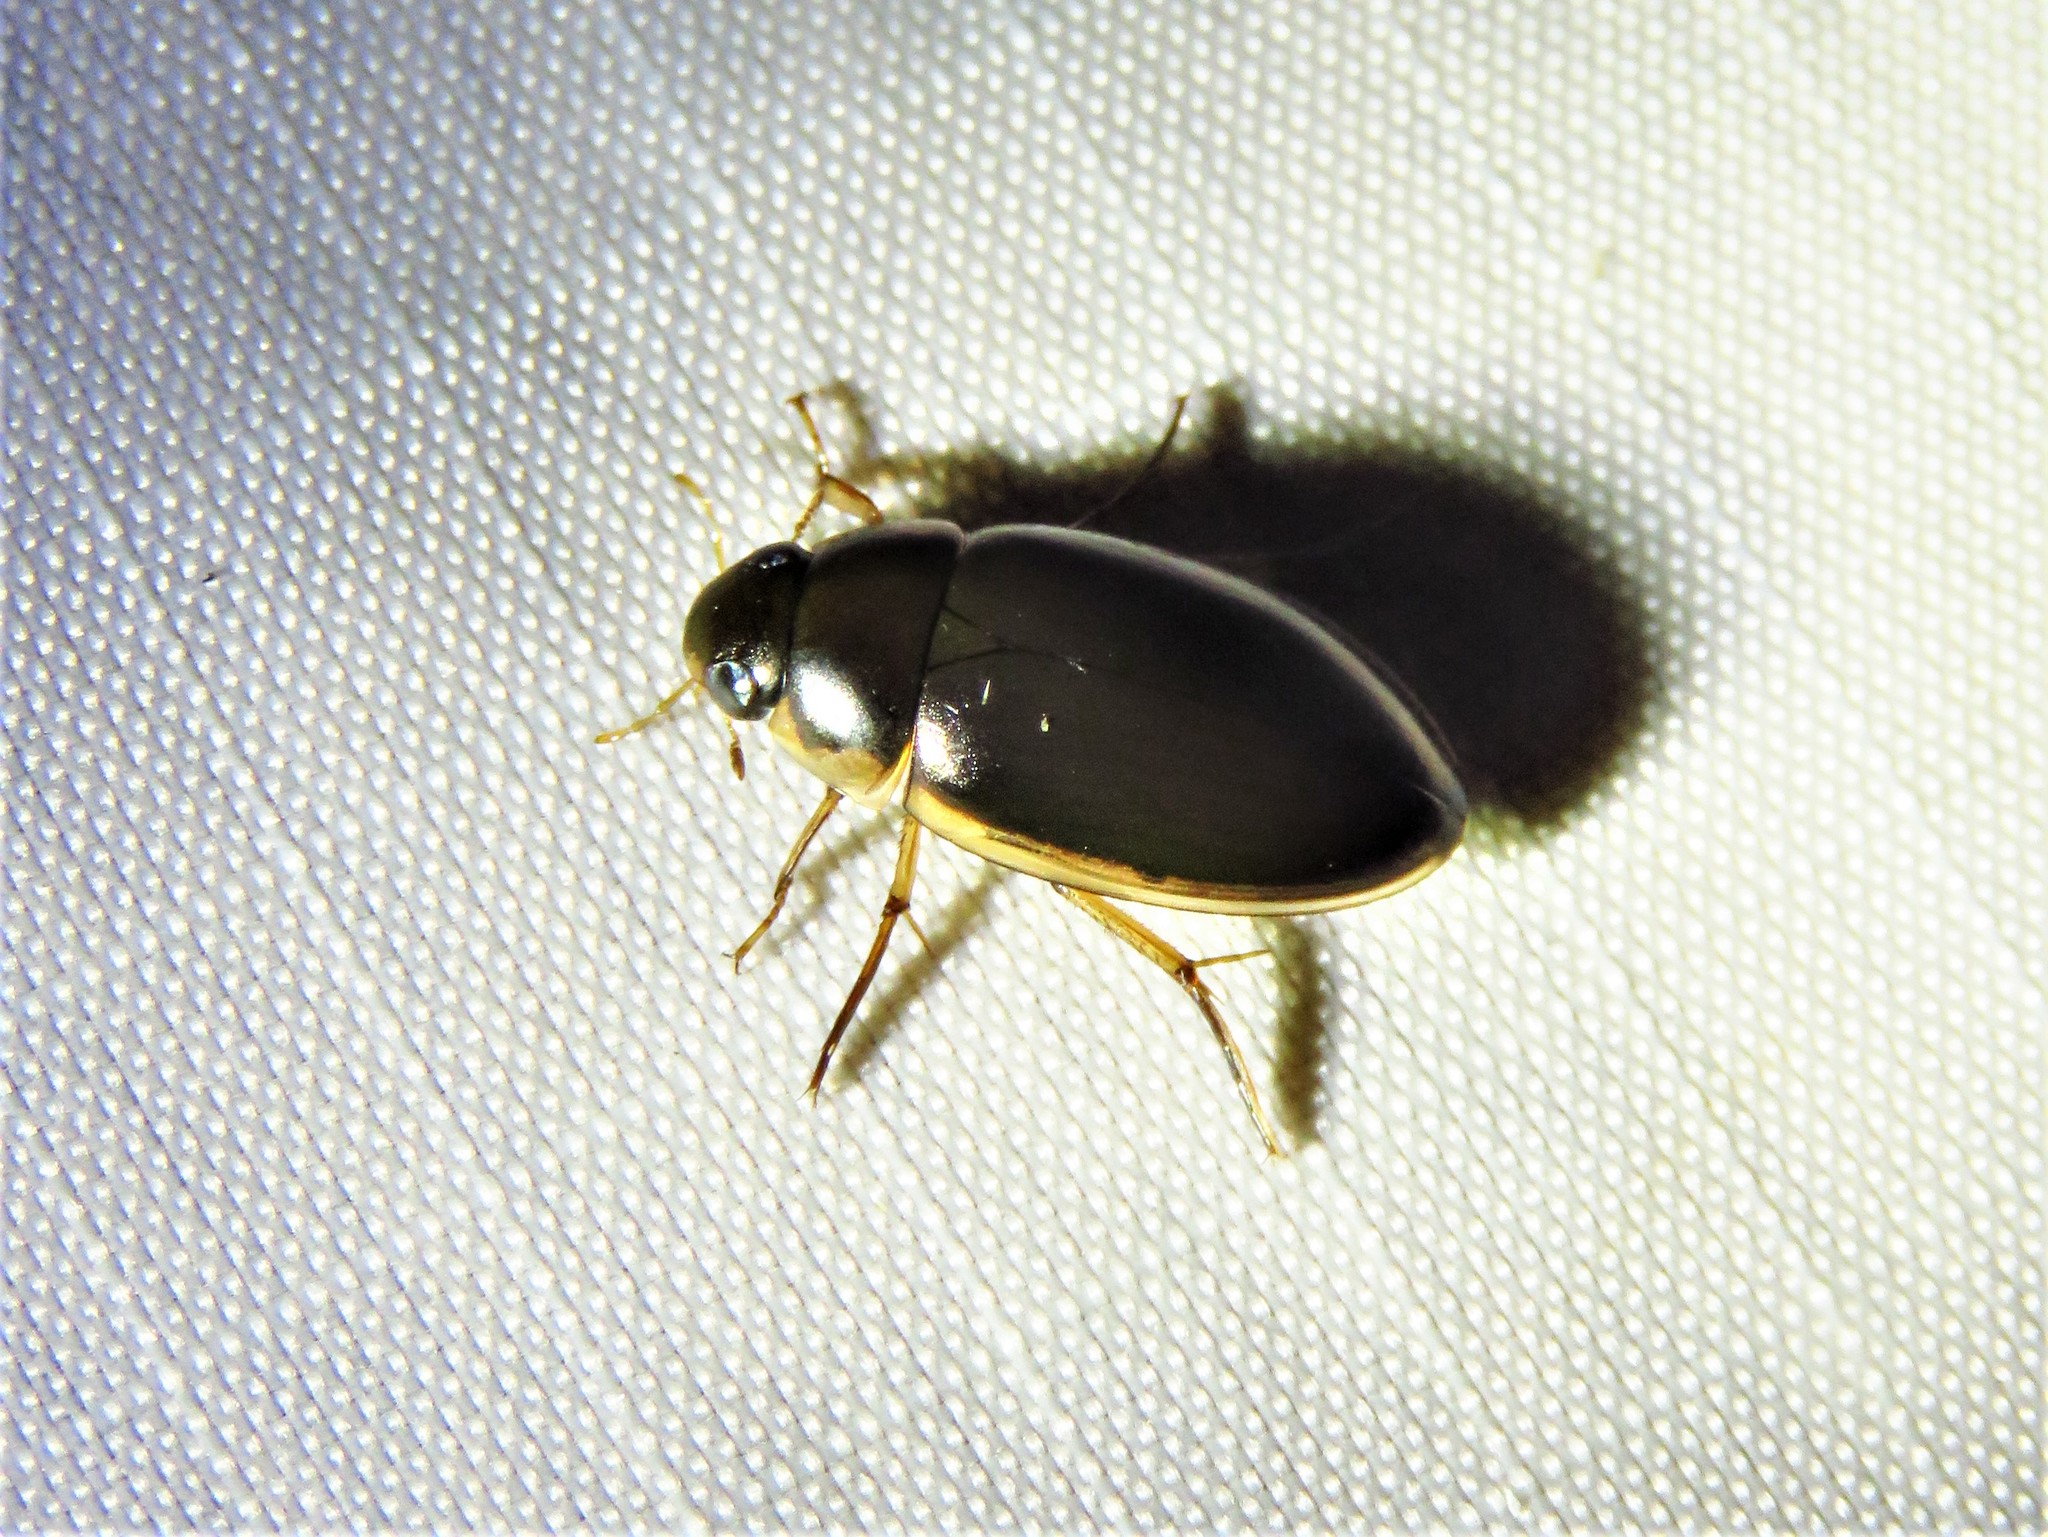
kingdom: Animalia
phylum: Arthropoda
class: Insecta
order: Coleoptera
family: Hydrophilidae
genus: Tropisternus
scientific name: Tropisternus lateralis
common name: Lateral-banded water scavenger beetle
